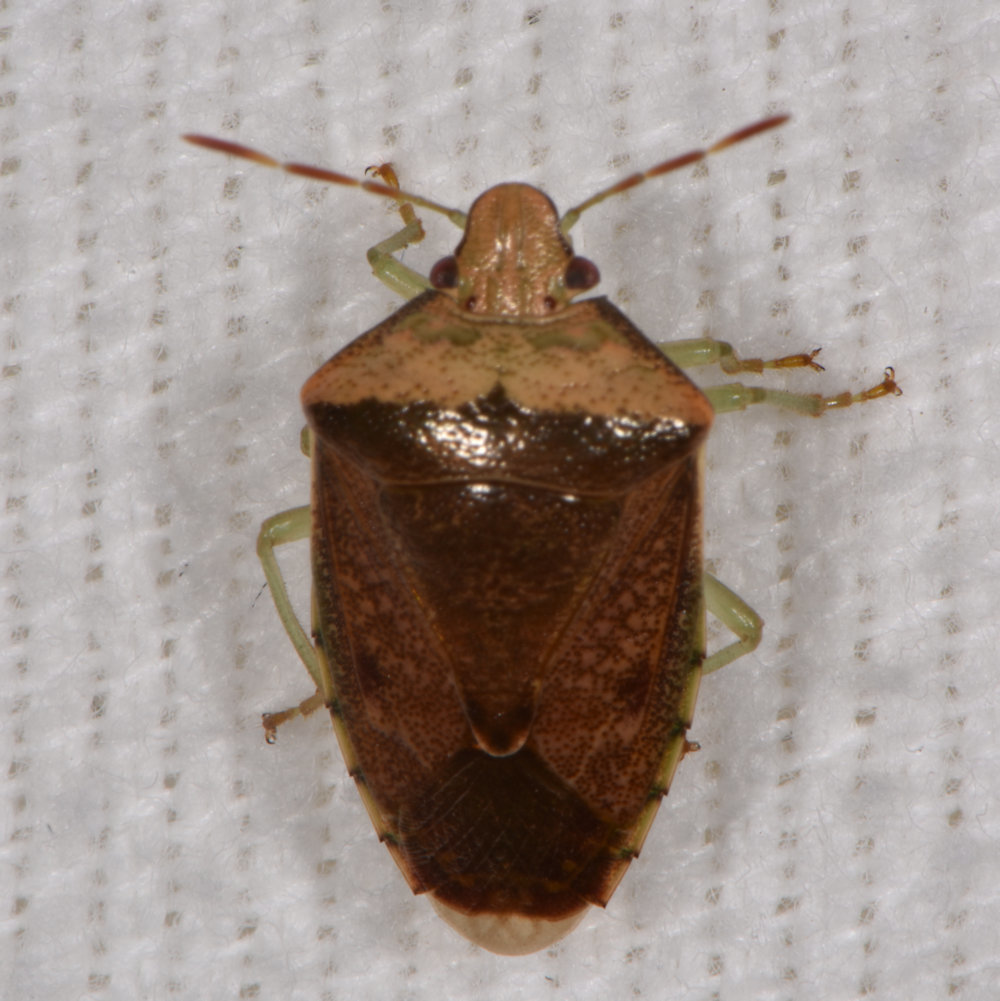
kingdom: Animalia
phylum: Arthropoda
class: Insecta
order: Hemiptera
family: Pentatomidae
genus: Banasa
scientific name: Banasa calva
